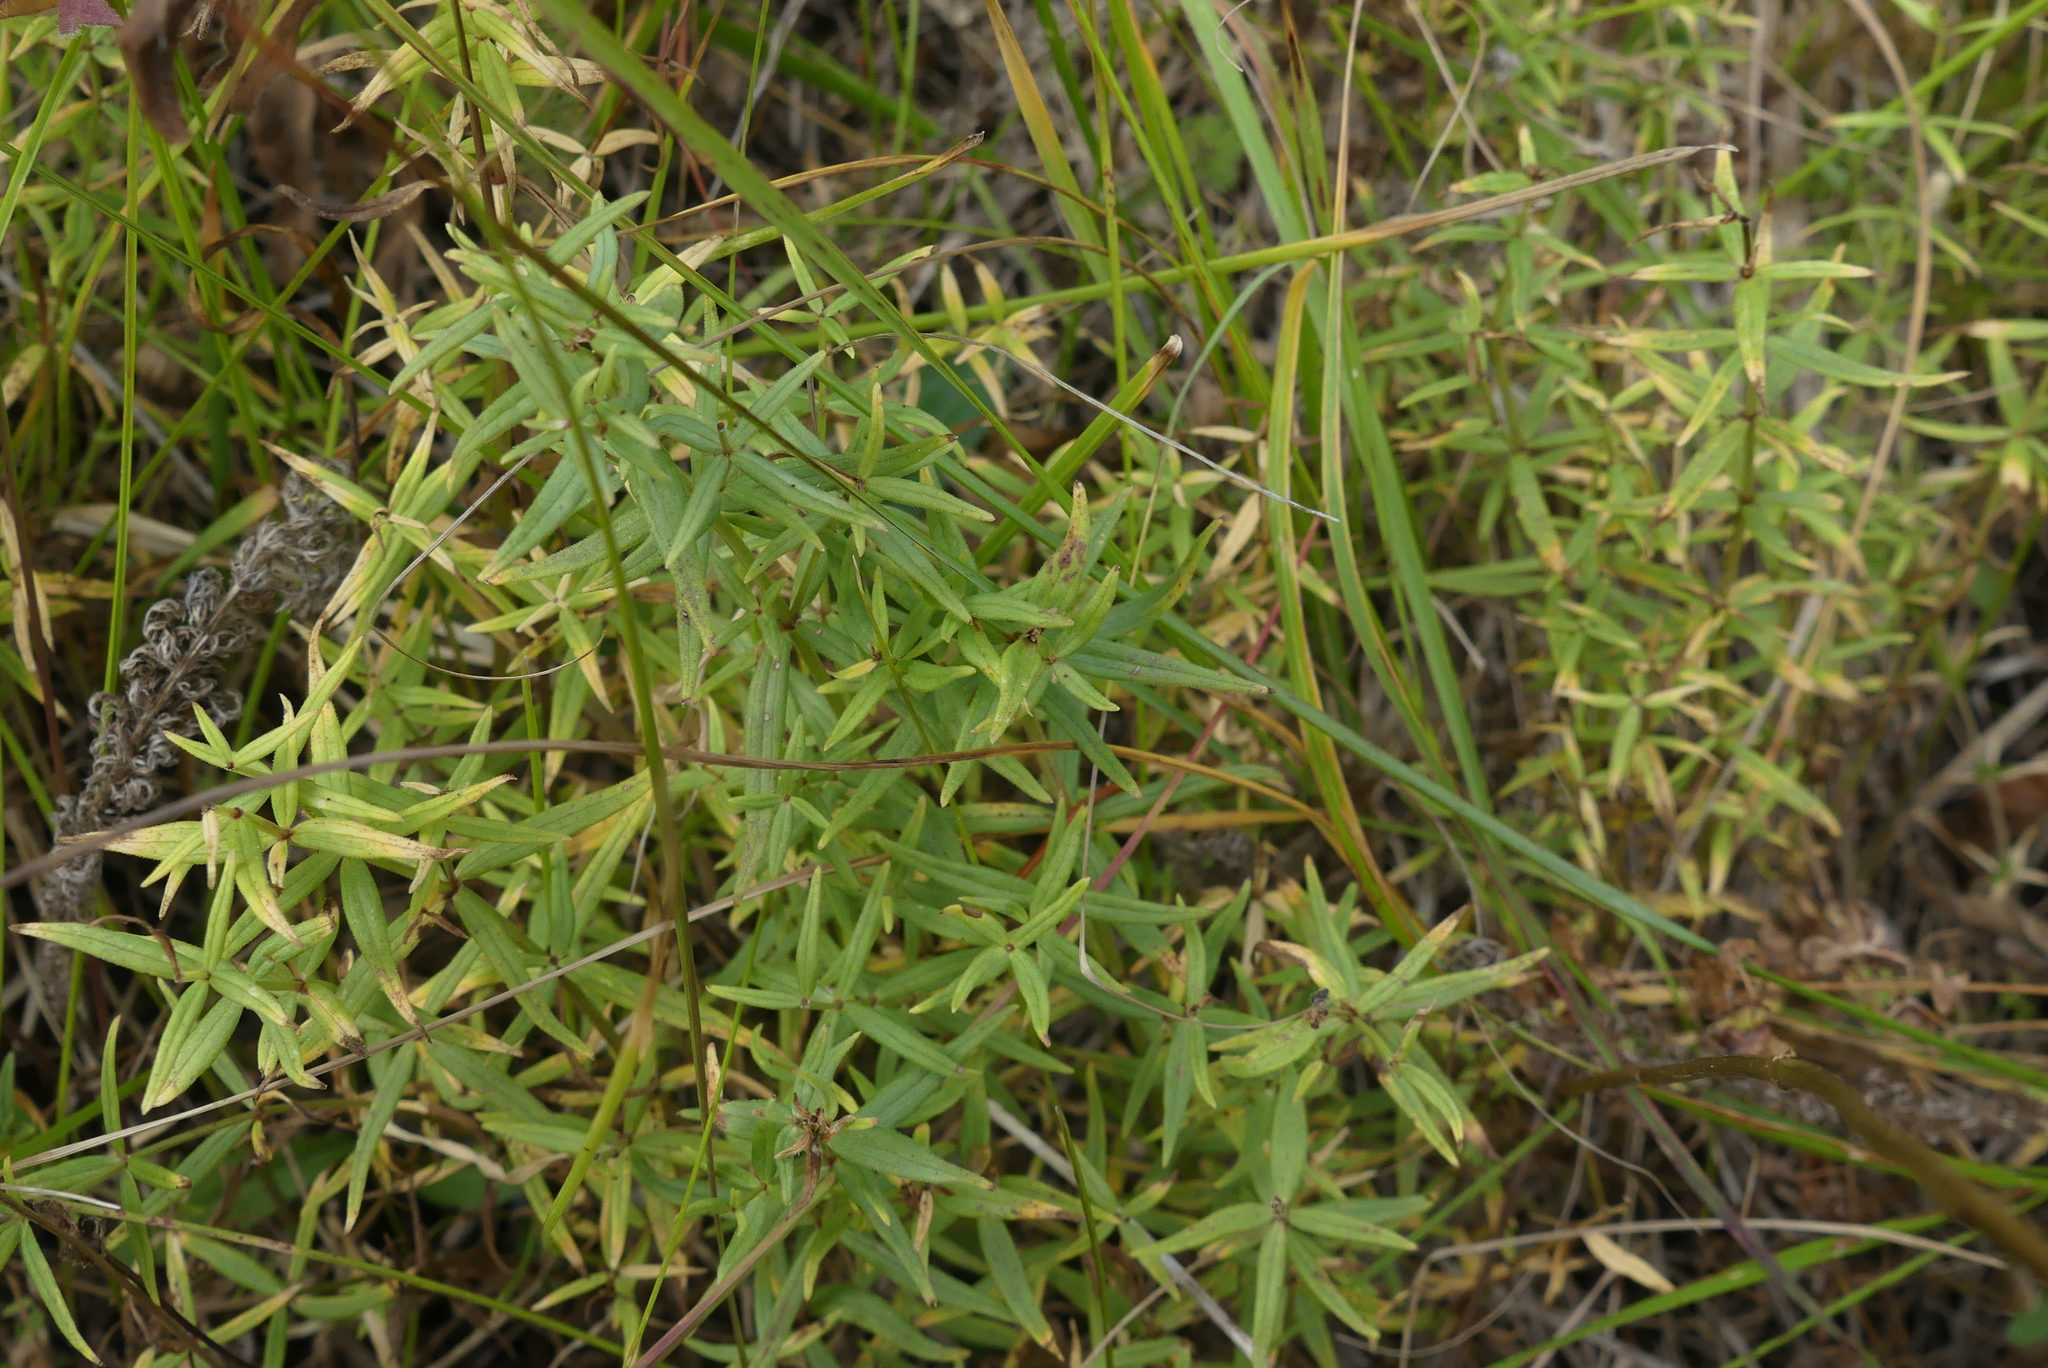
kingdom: Plantae
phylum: Tracheophyta
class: Magnoliopsida
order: Gentianales
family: Rubiaceae
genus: Galium
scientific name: Galium boreale
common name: Northern bedstraw
